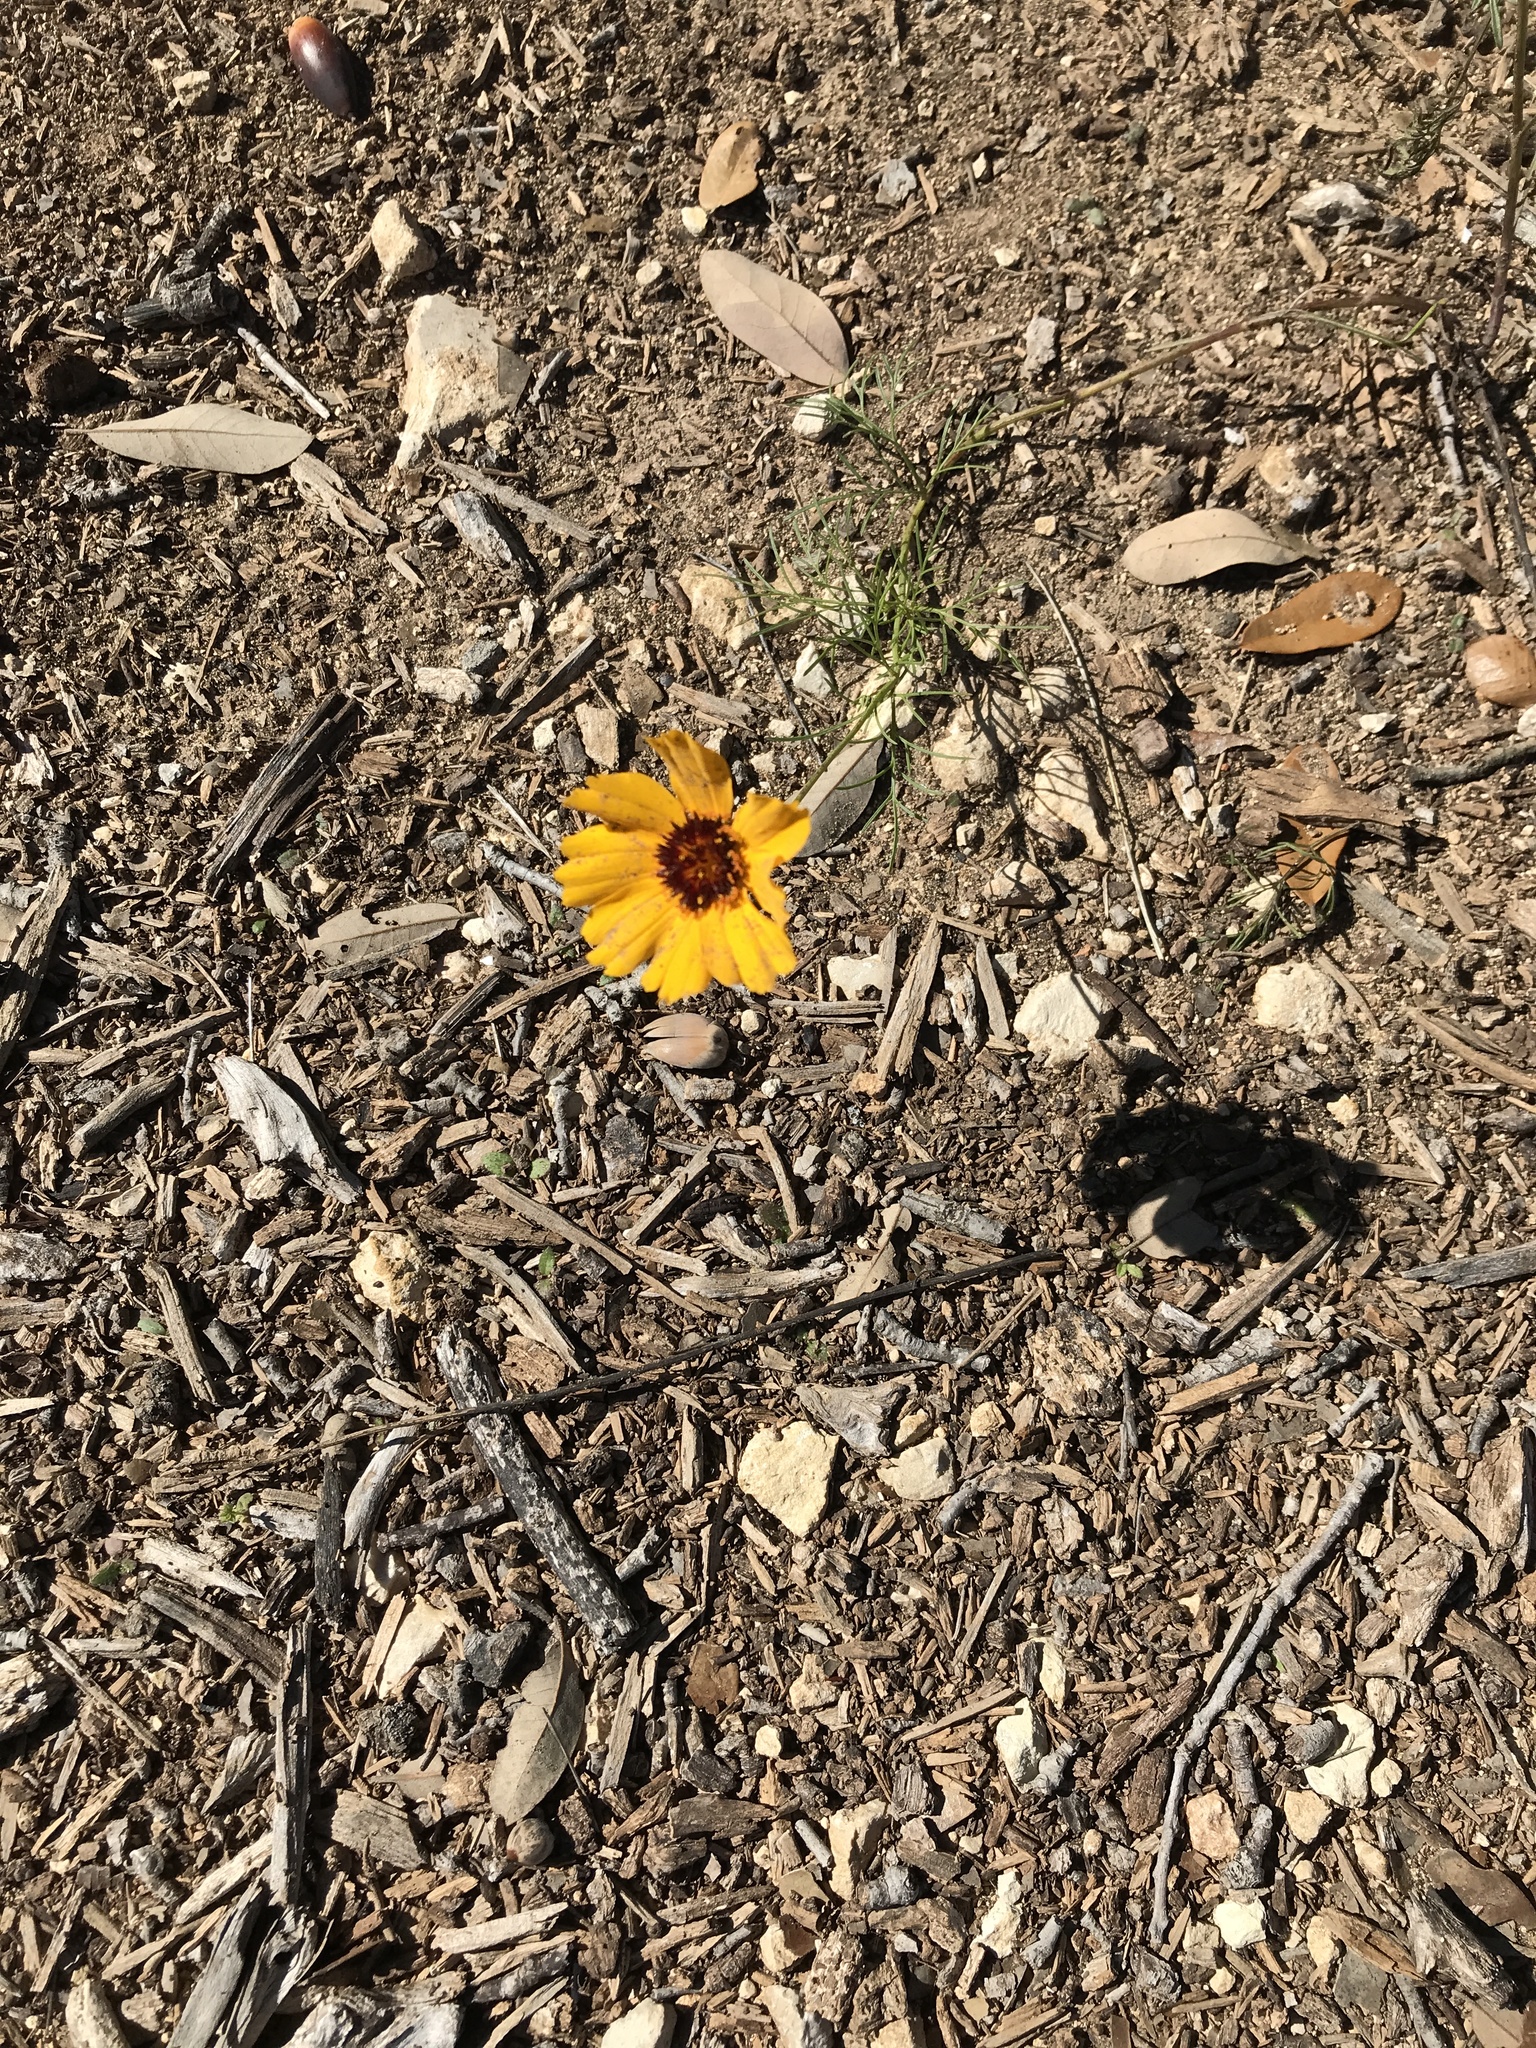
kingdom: Plantae
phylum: Tracheophyta
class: Magnoliopsida
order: Asterales
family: Asteraceae
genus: Thelesperma
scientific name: Thelesperma filifolium
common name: Stiff greenthread
